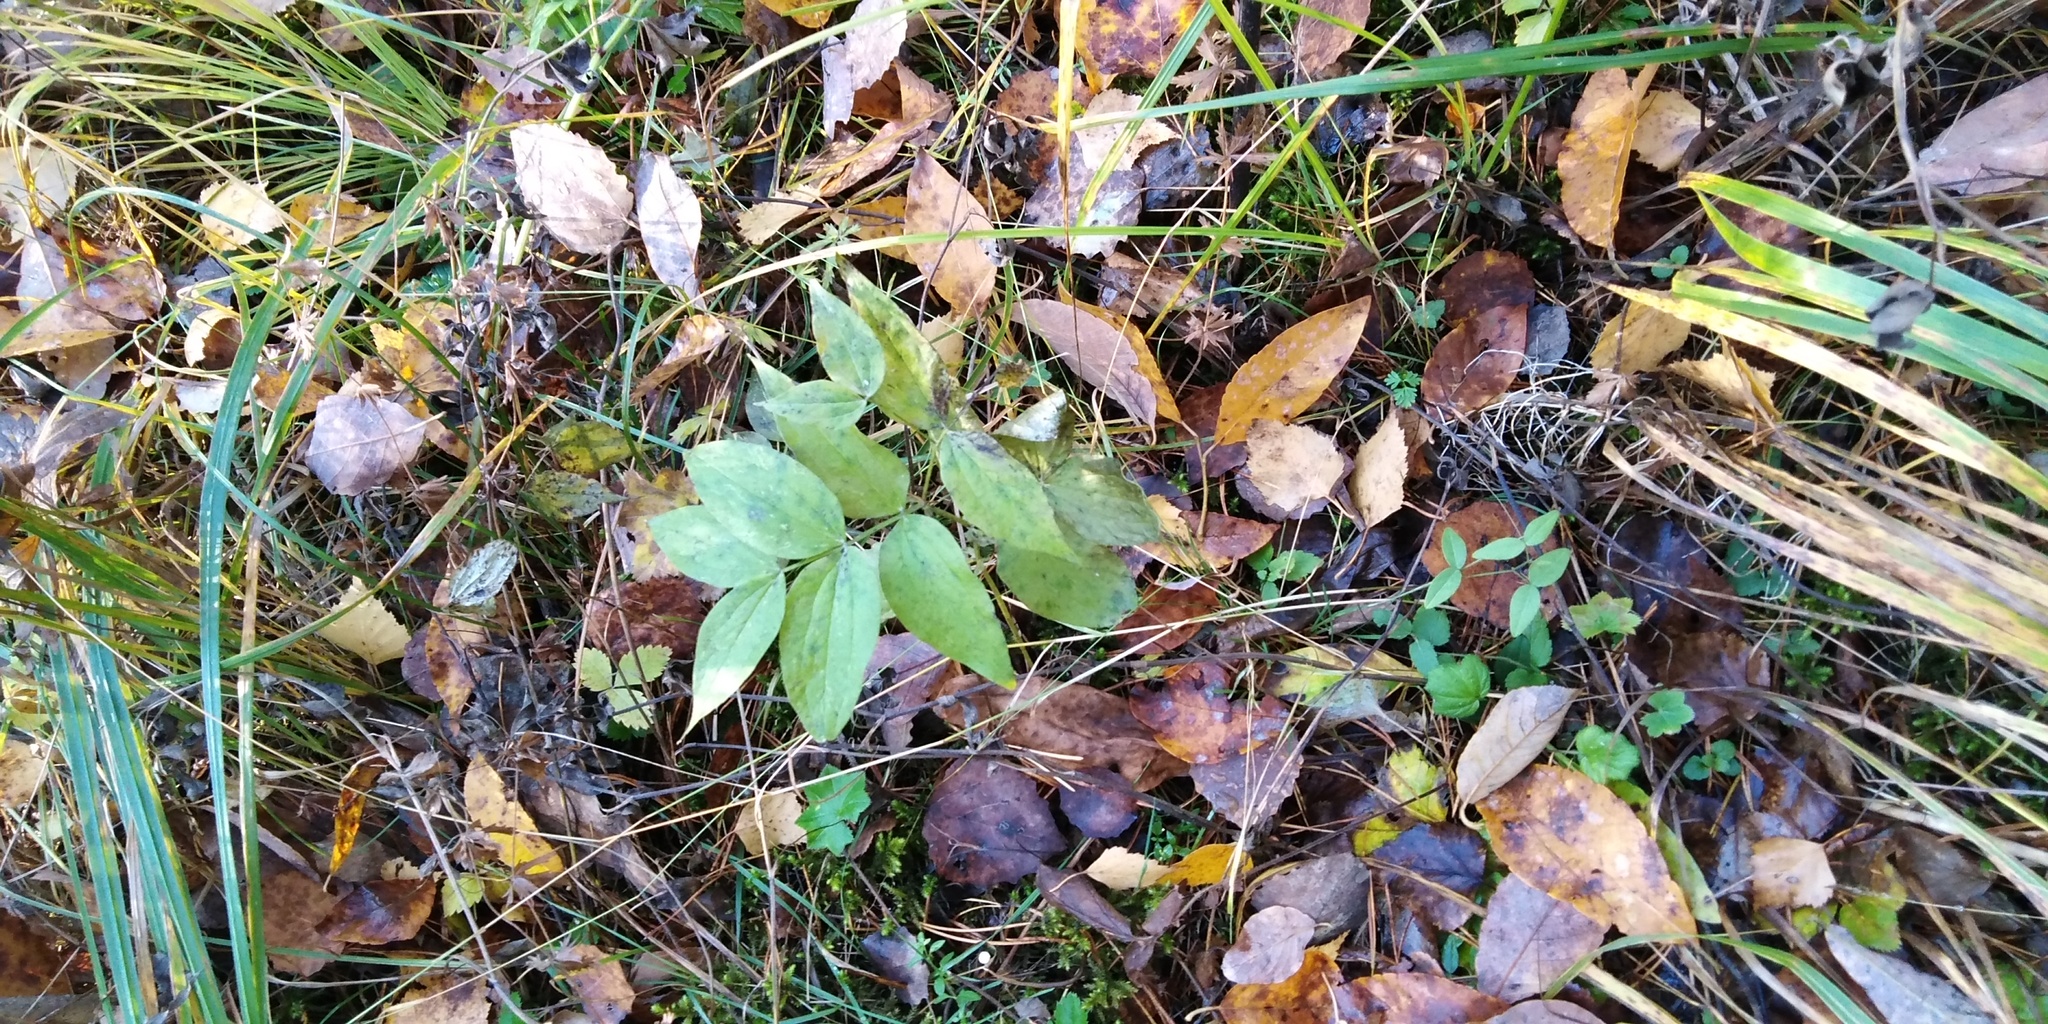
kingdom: Plantae
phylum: Tracheophyta
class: Magnoliopsida
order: Fabales
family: Fabaceae
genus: Lathyrus
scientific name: Lathyrus vernus
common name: Spring pea
